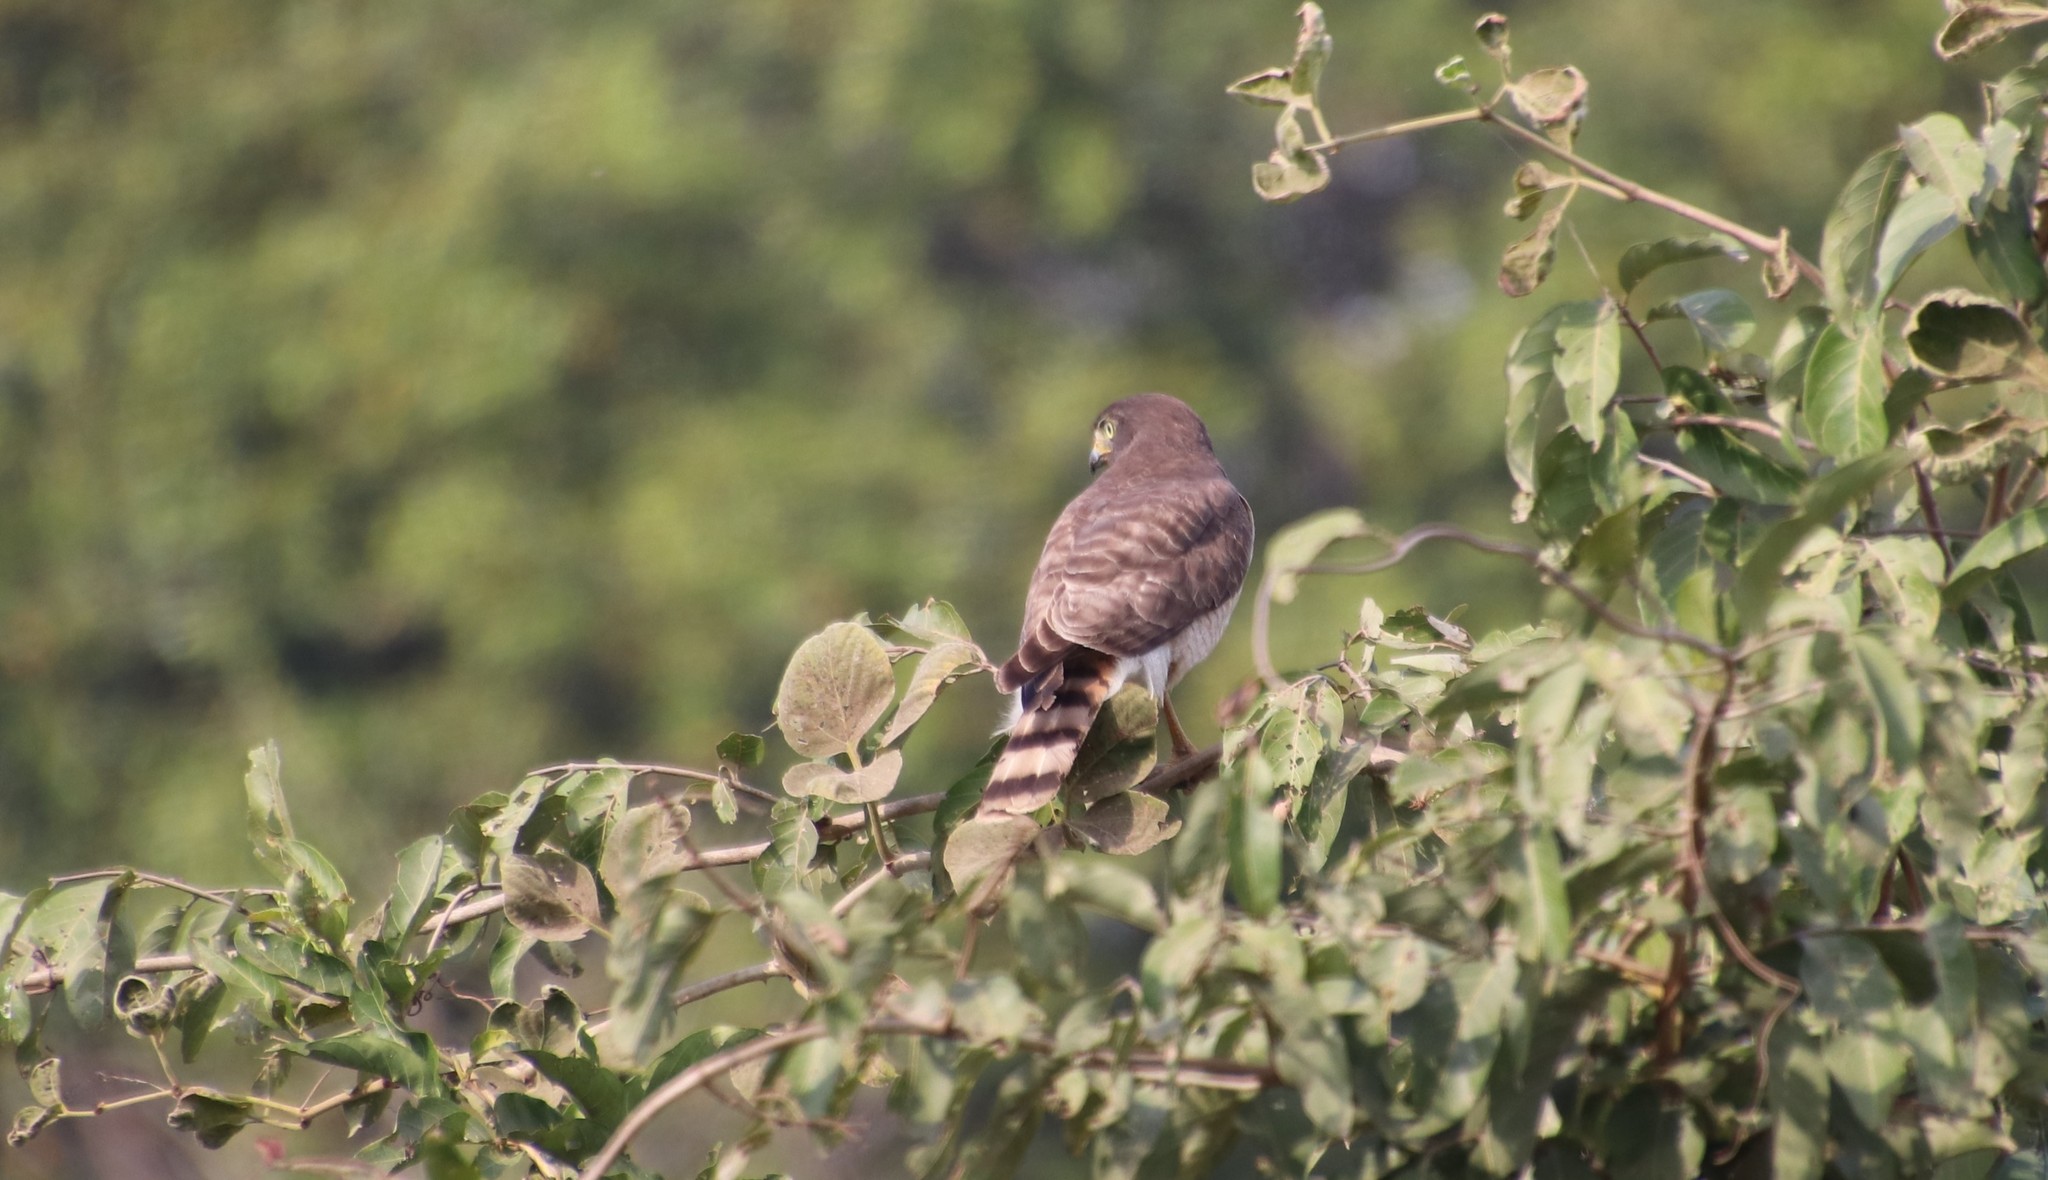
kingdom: Animalia
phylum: Chordata
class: Aves
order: Accipitriformes
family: Accipitridae
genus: Rupornis
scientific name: Rupornis magnirostris
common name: Roadside hawk
